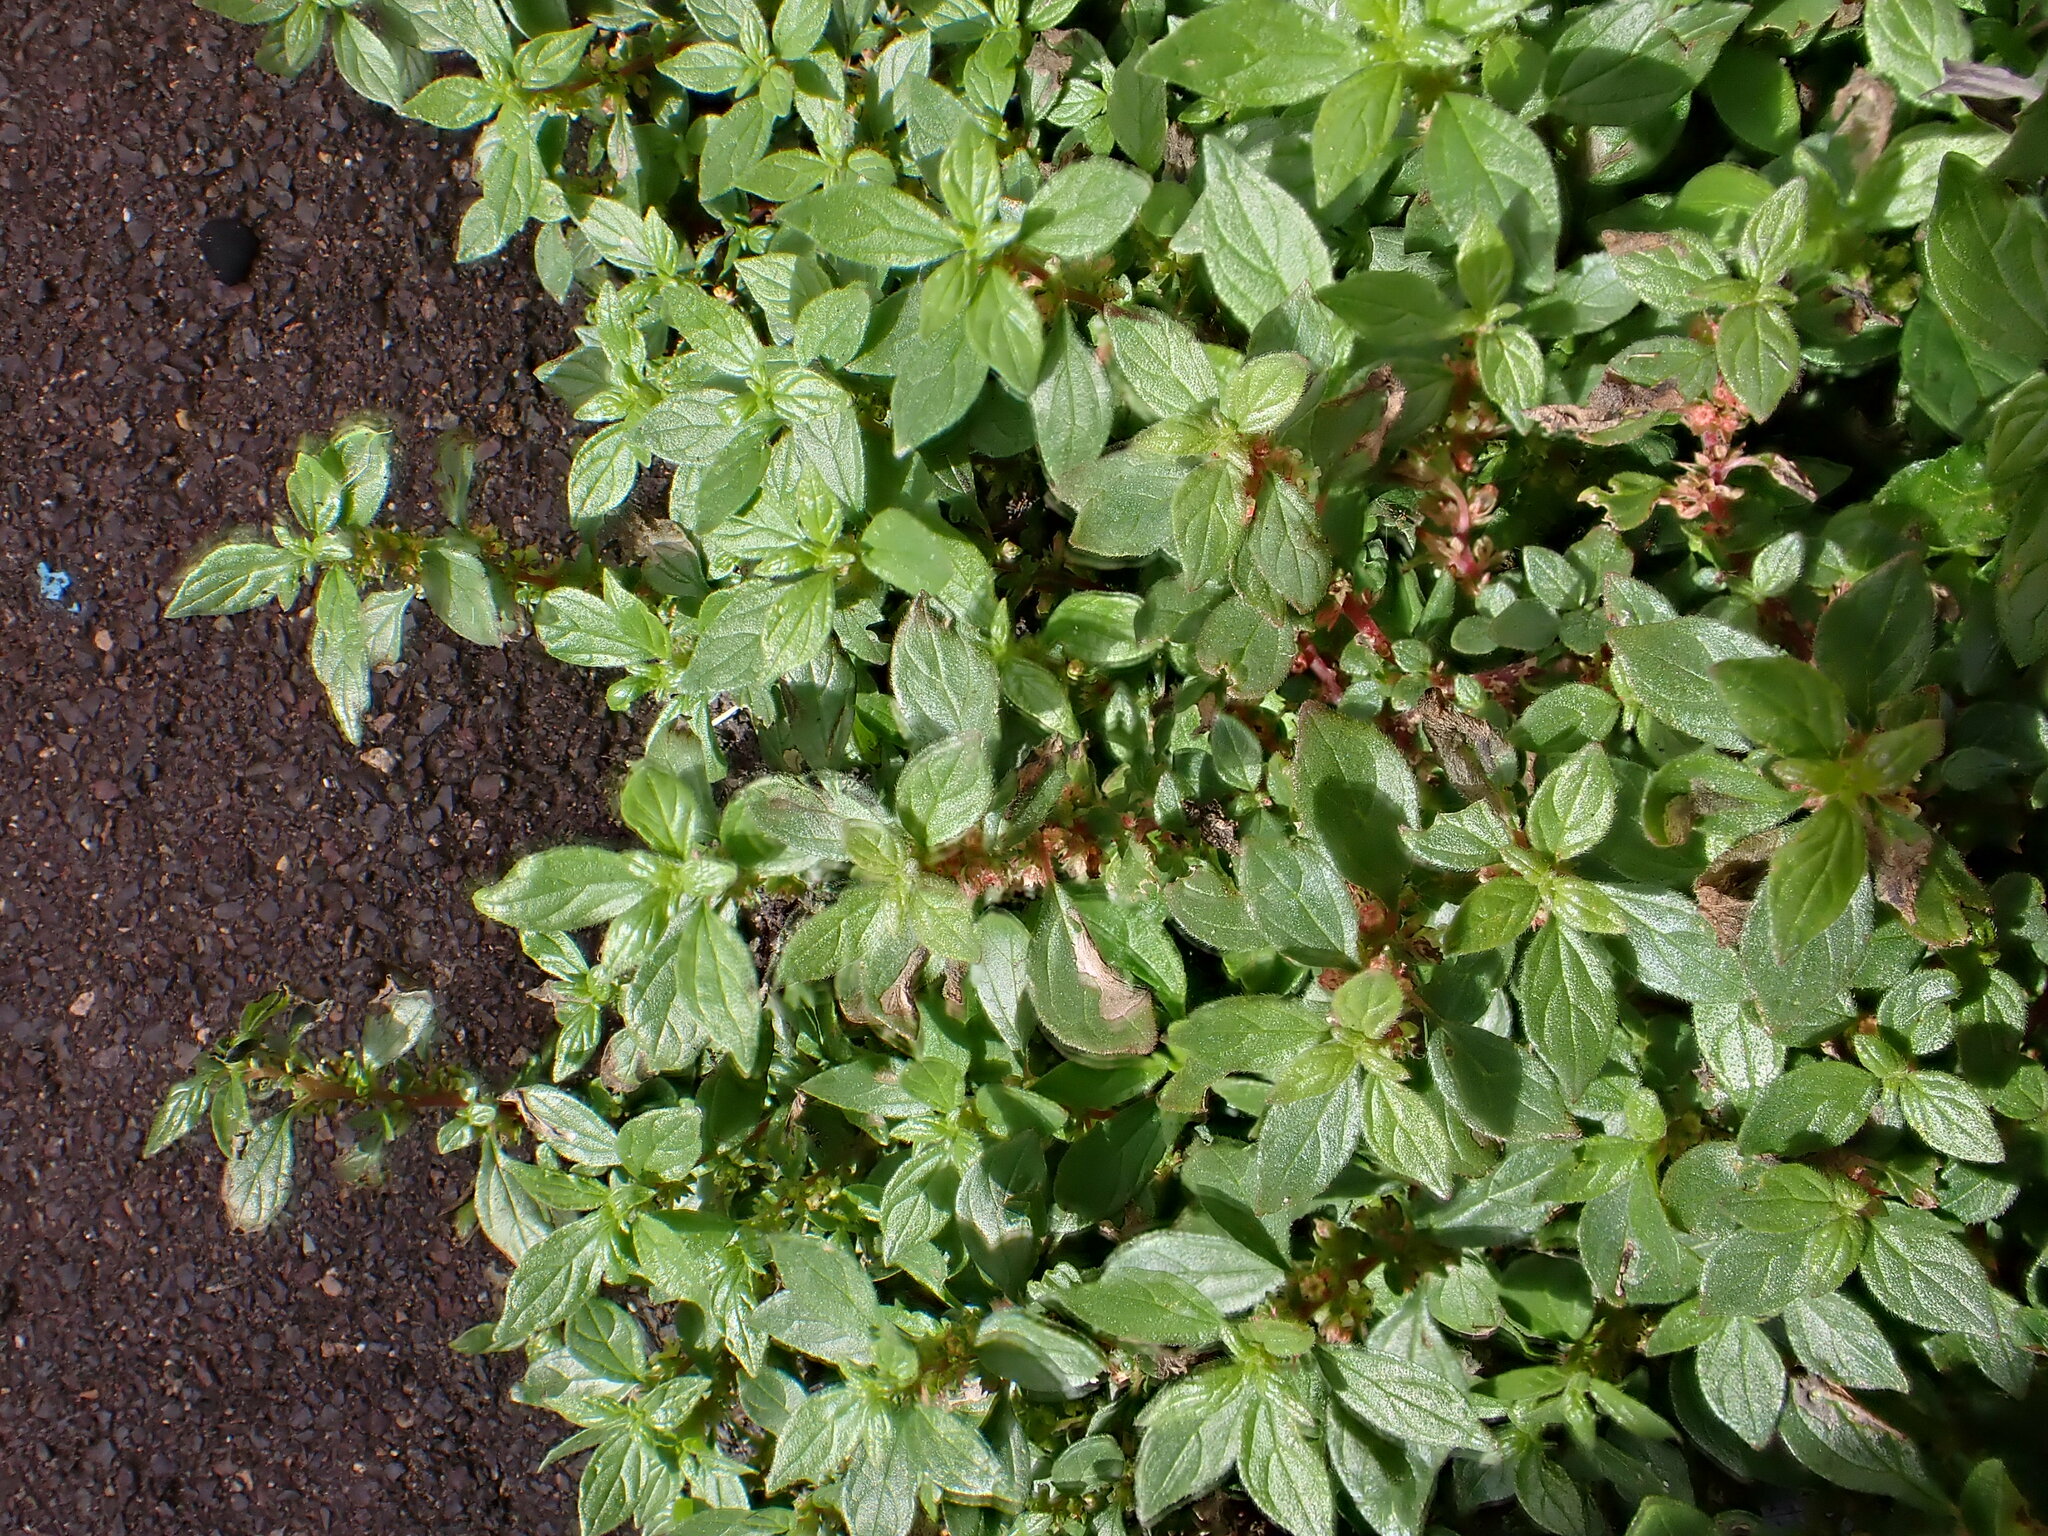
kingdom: Plantae
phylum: Tracheophyta
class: Magnoliopsida
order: Rosales
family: Urticaceae
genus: Parietaria
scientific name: Parietaria judaica
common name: Pellitory-of-the-wall
